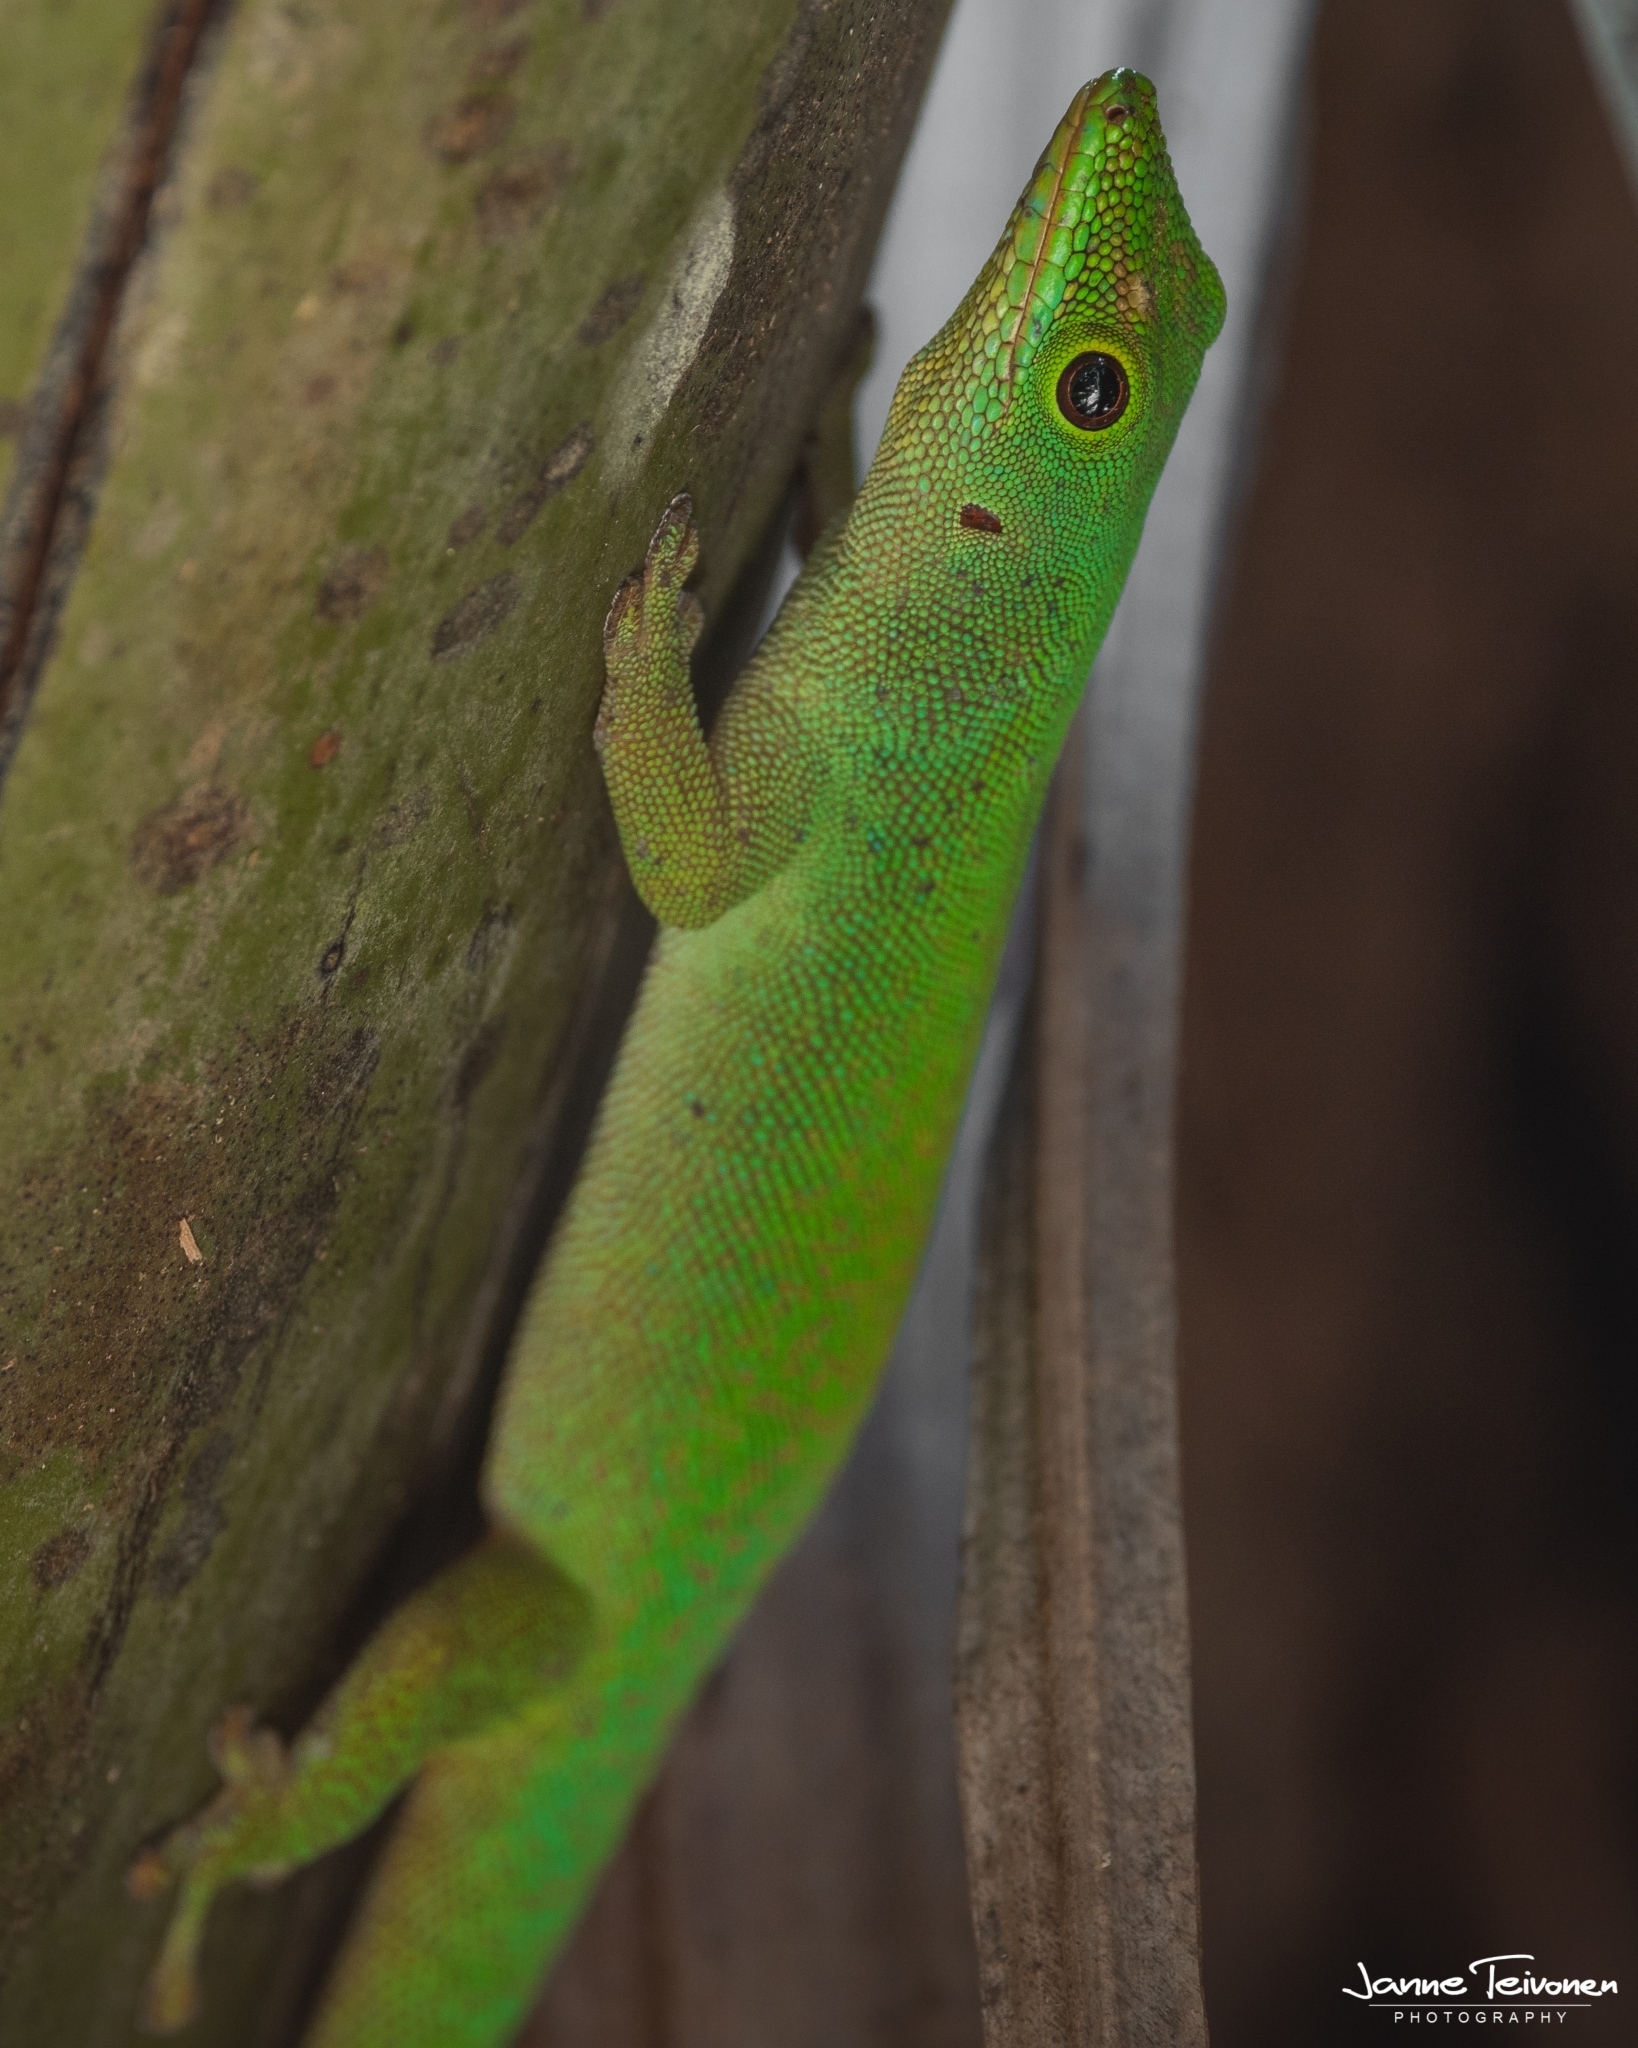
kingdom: Animalia
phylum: Chordata
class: Squamata
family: Gekkonidae
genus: Phelsuma
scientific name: Phelsuma sundbergi
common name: Seychelles giant day gecko
